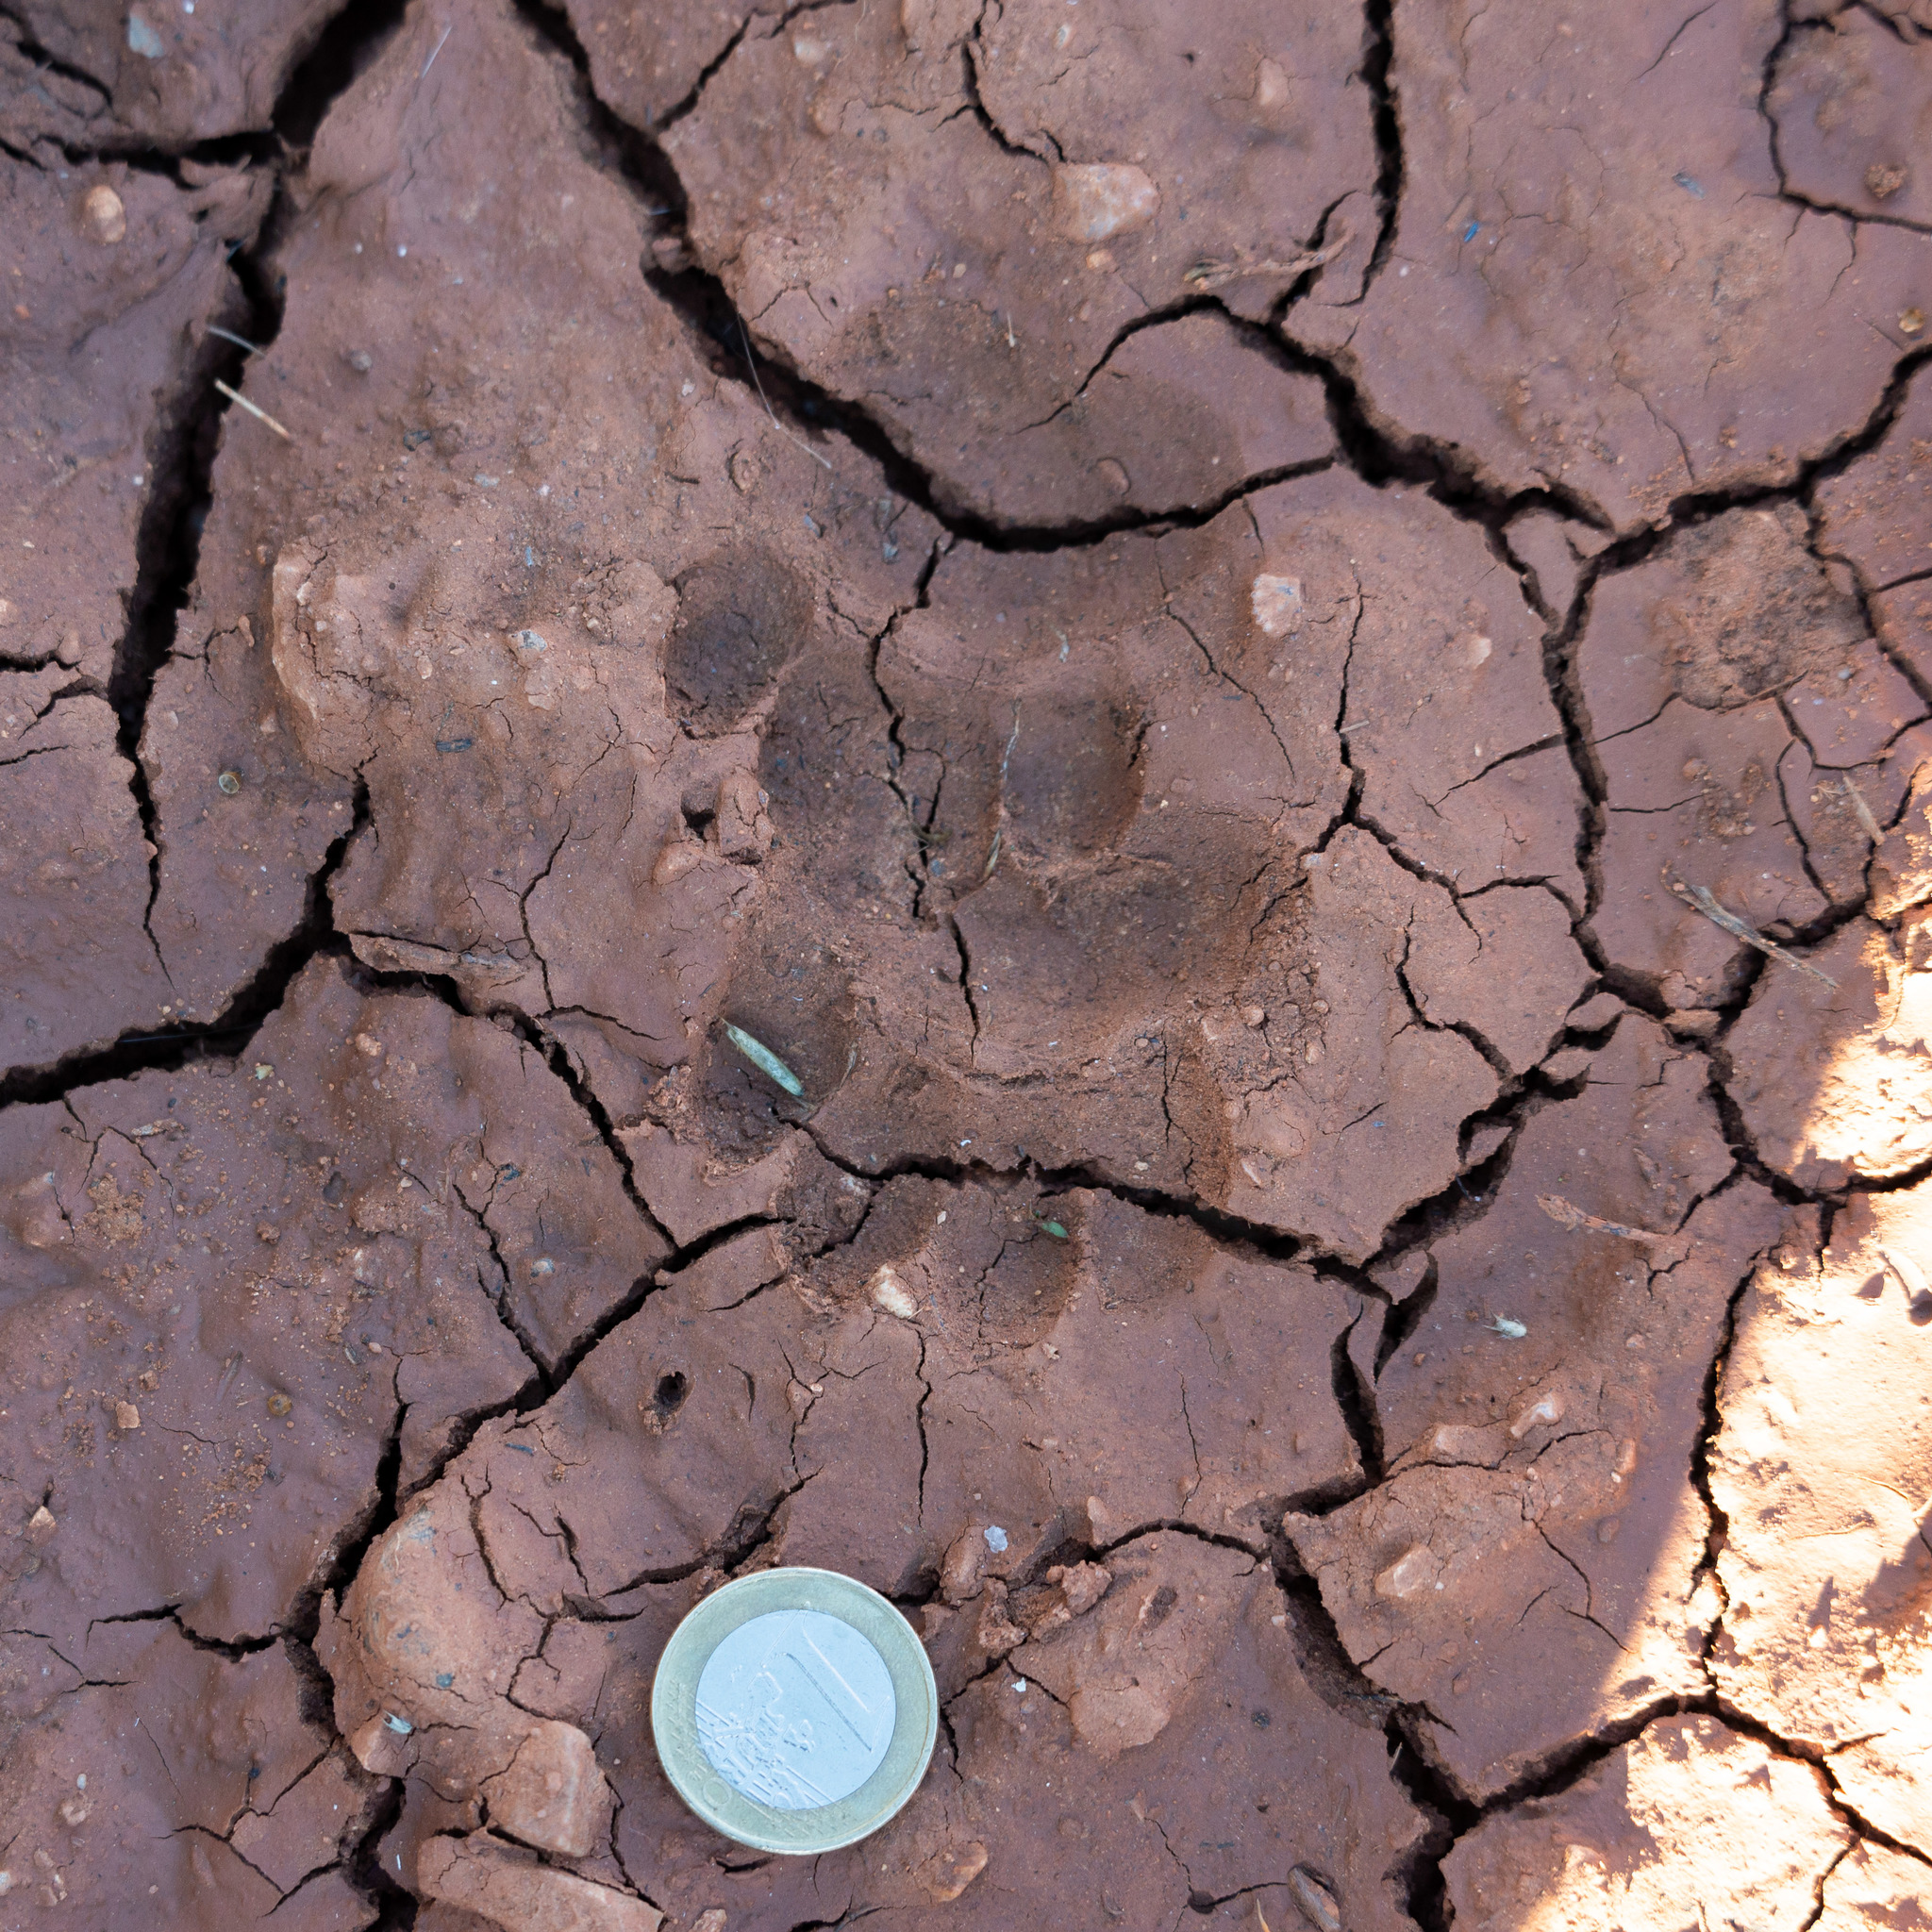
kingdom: Animalia
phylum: Chordata
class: Mammalia
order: Carnivora
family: Mustelidae
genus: Meles
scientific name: Meles meles
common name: Eurasian badger
